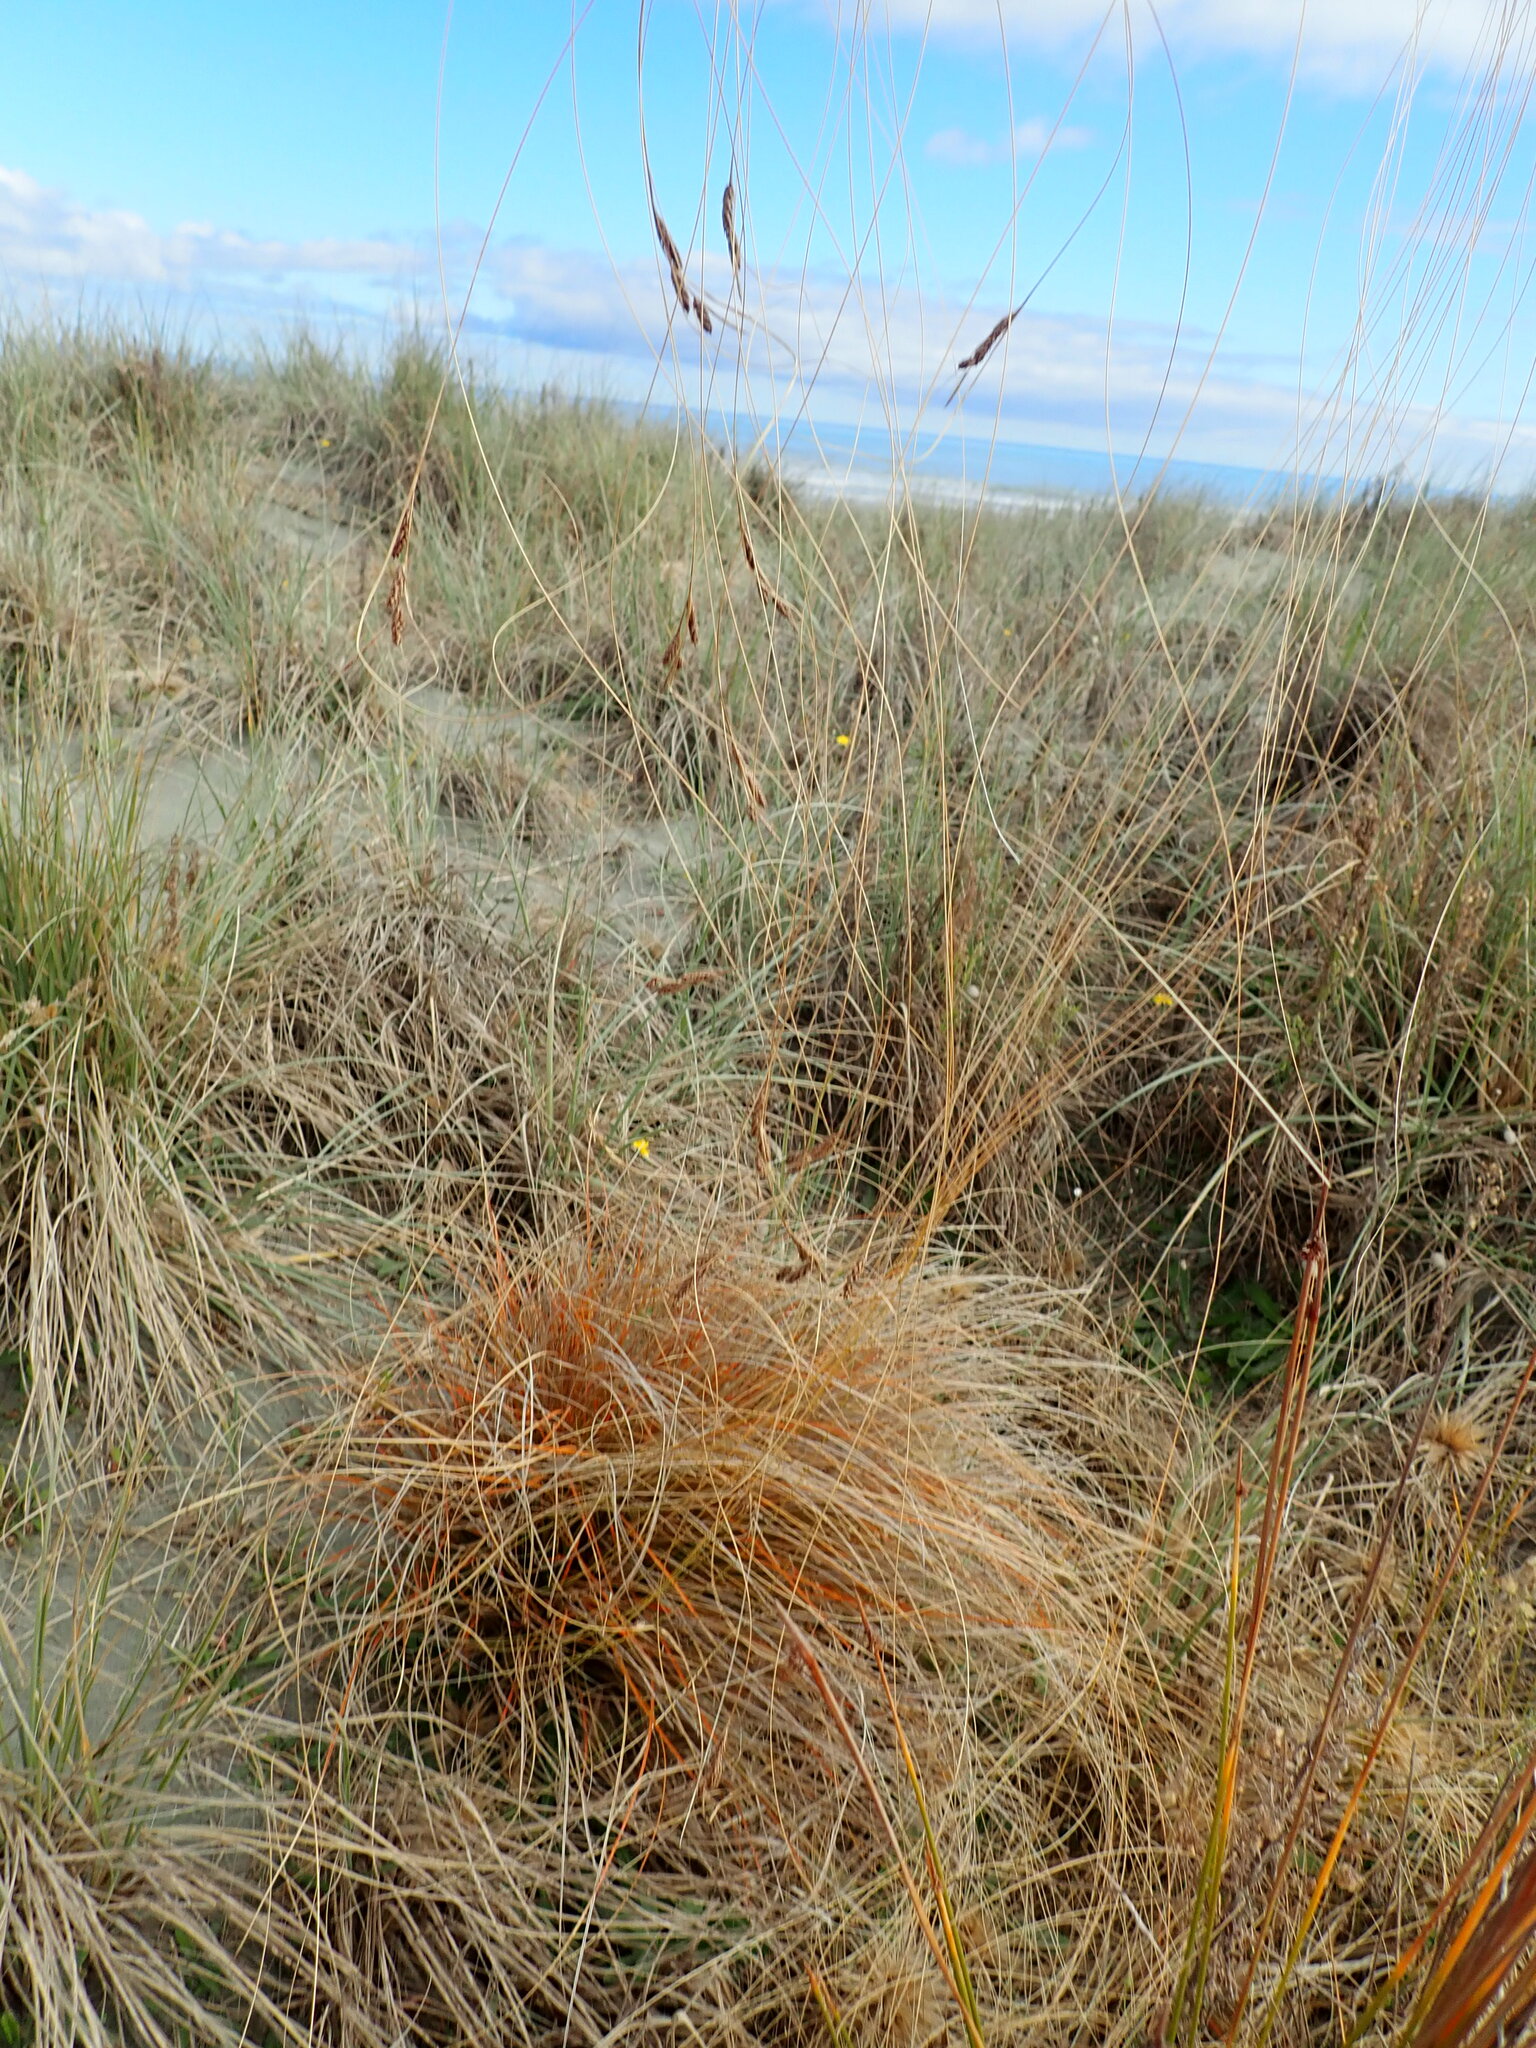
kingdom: Plantae
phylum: Tracheophyta
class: Liliopsida
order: Poales
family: Cyperaceae
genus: Carex
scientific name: Carex testacea
